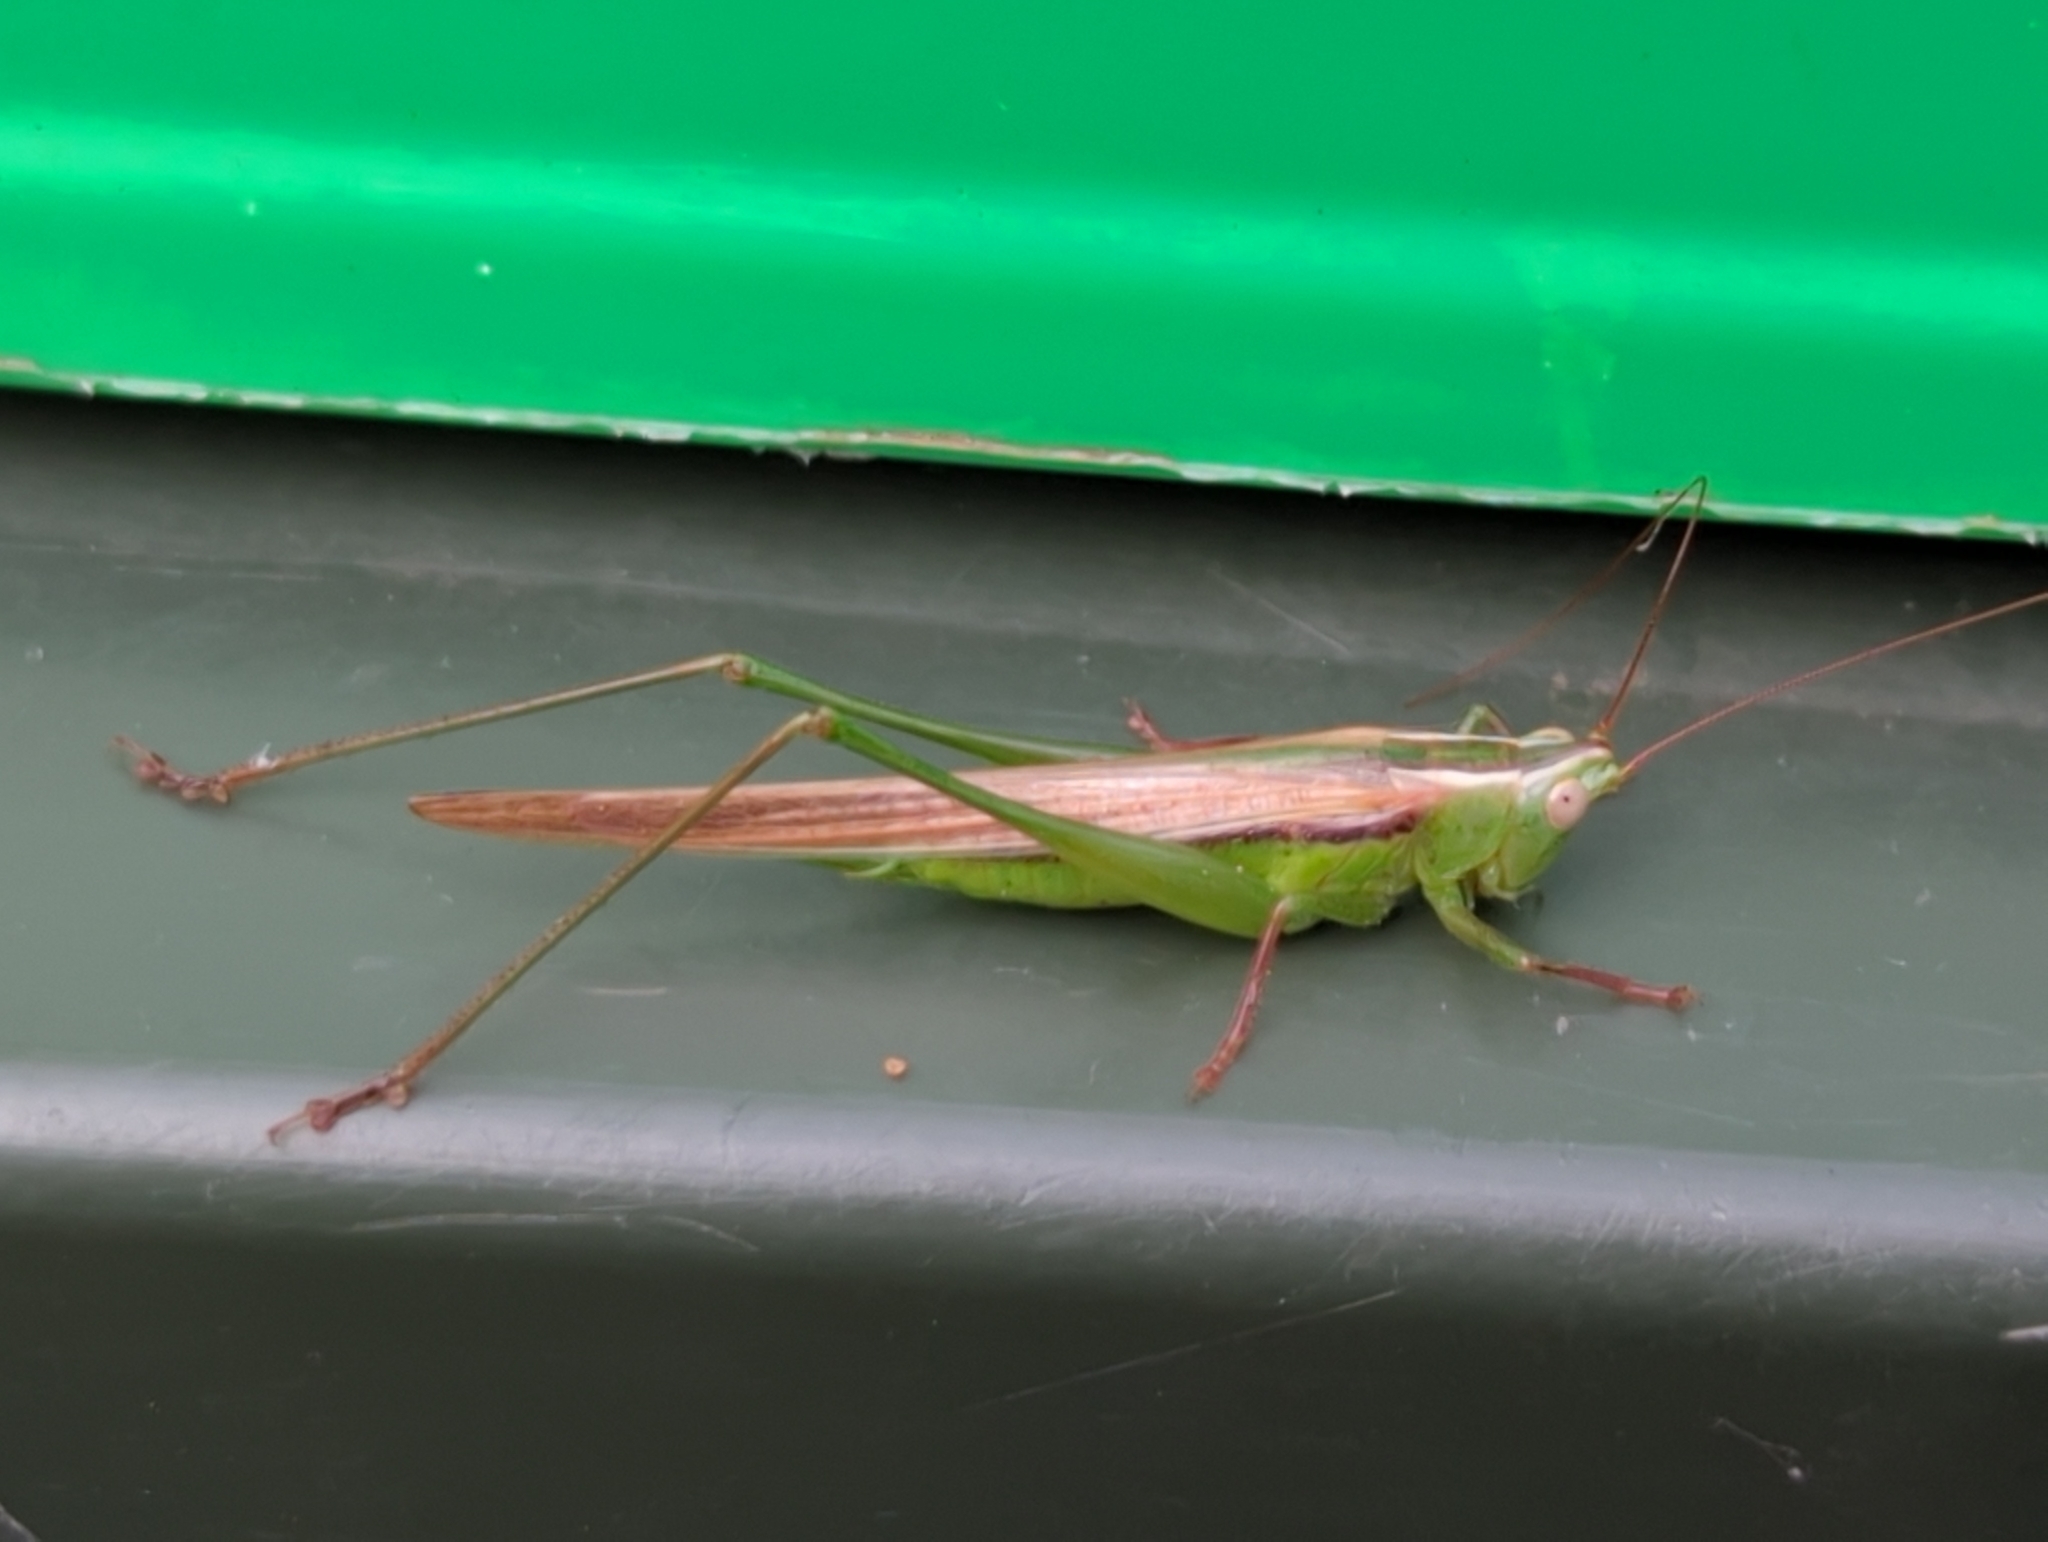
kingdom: Animalia
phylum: Arthropoda
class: Insecta
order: Orthoptera
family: Tettigoniidae
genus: Conocephalus
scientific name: Conocephalus upoluensis
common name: Upolu meadow katydid
